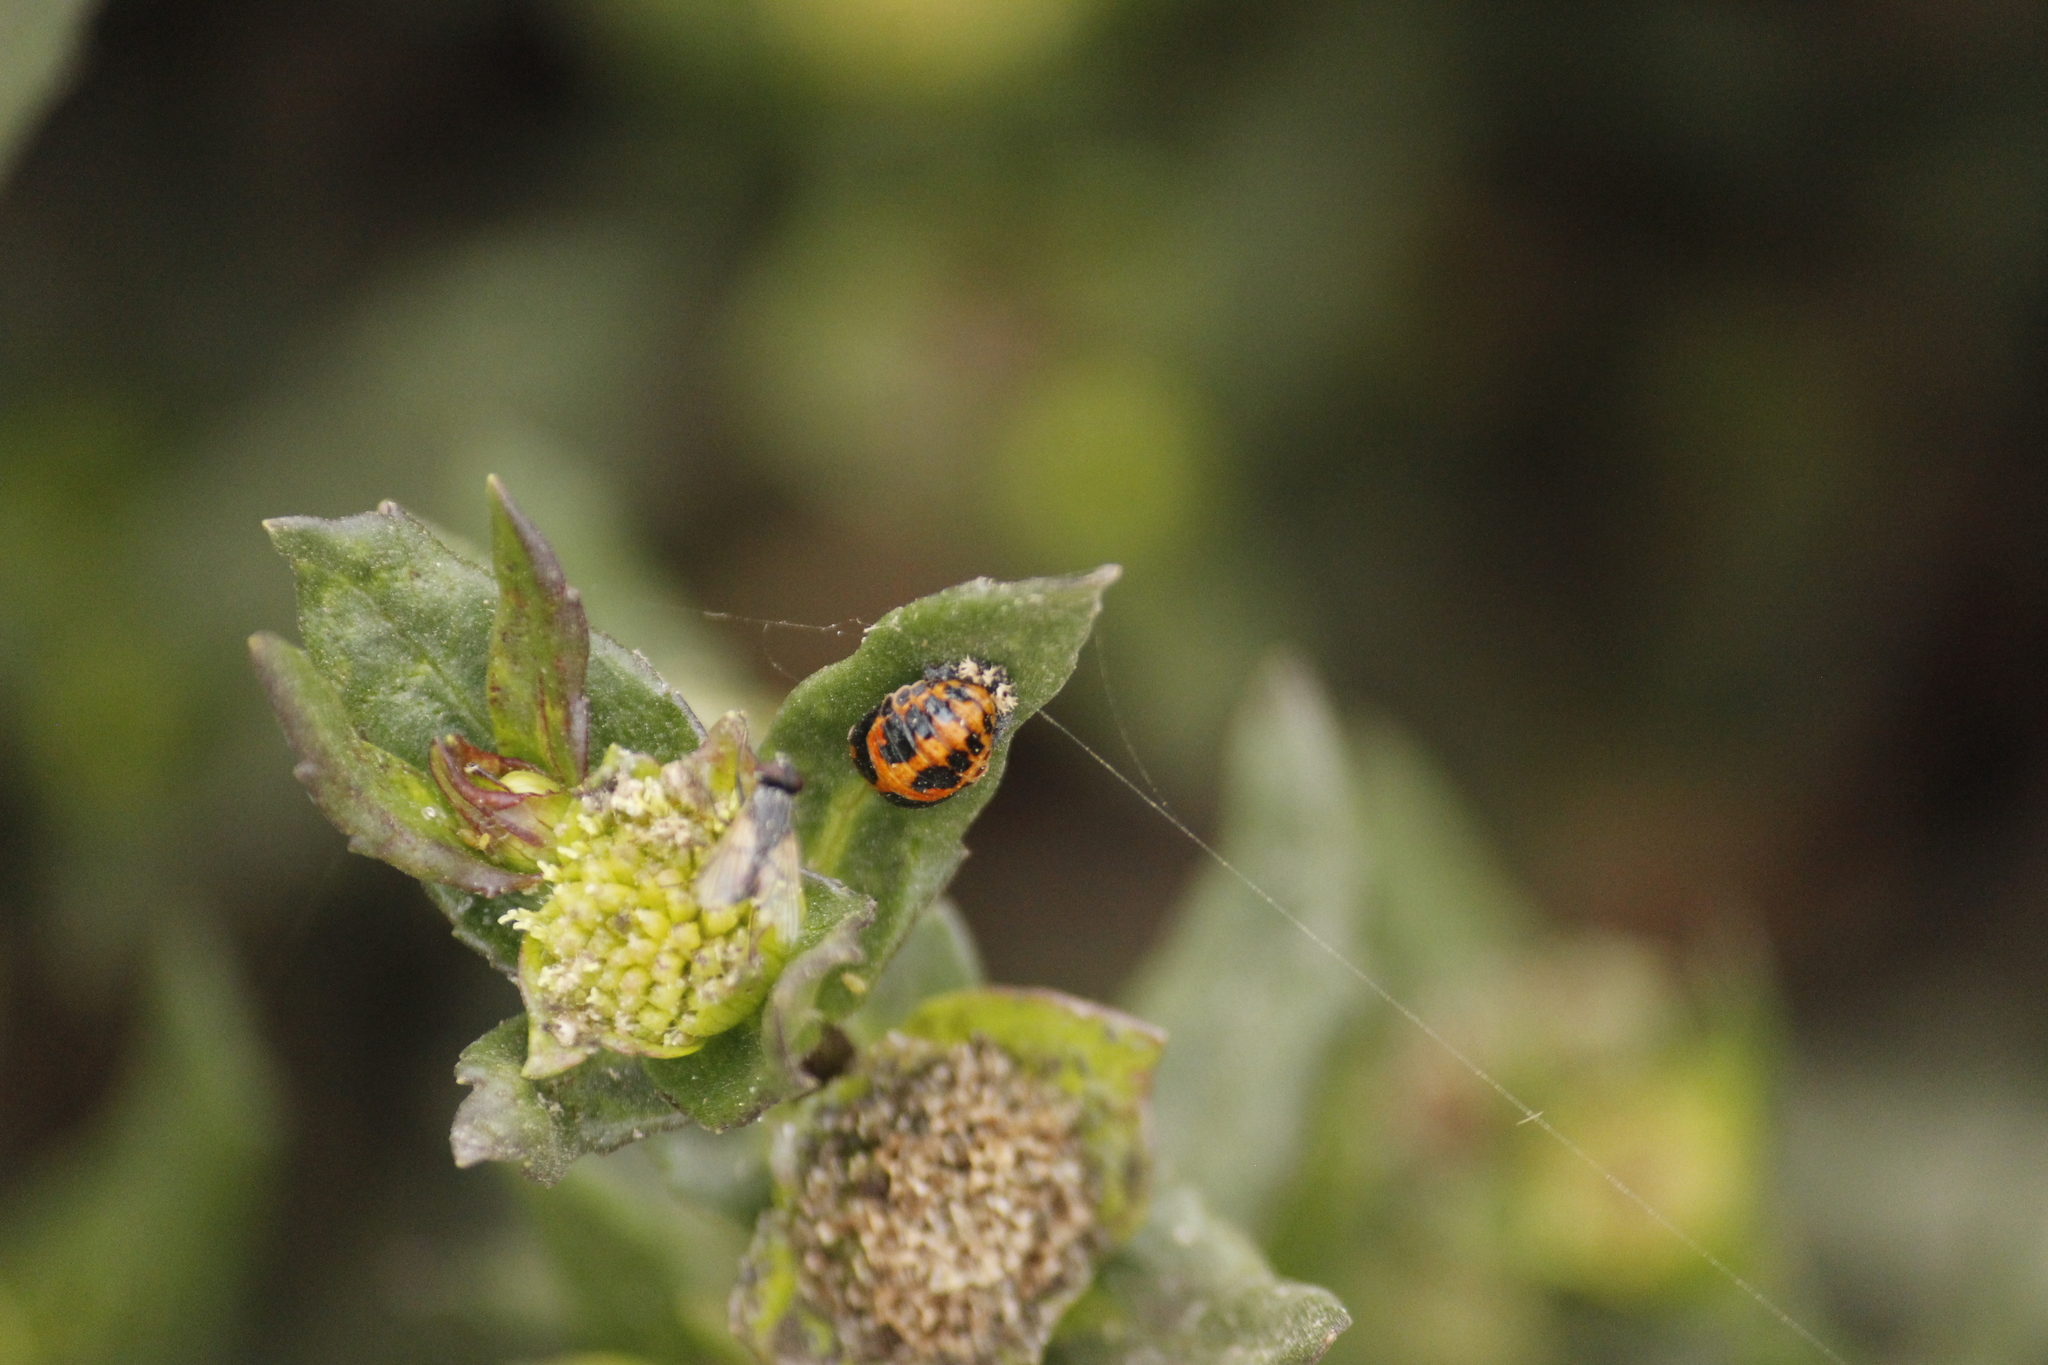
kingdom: Animalia
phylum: Arthropoda
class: Insecta
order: Coleoptera
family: Coccinellidae
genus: Harmonia
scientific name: Harmonia axyridis
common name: Harlequin ladybird
